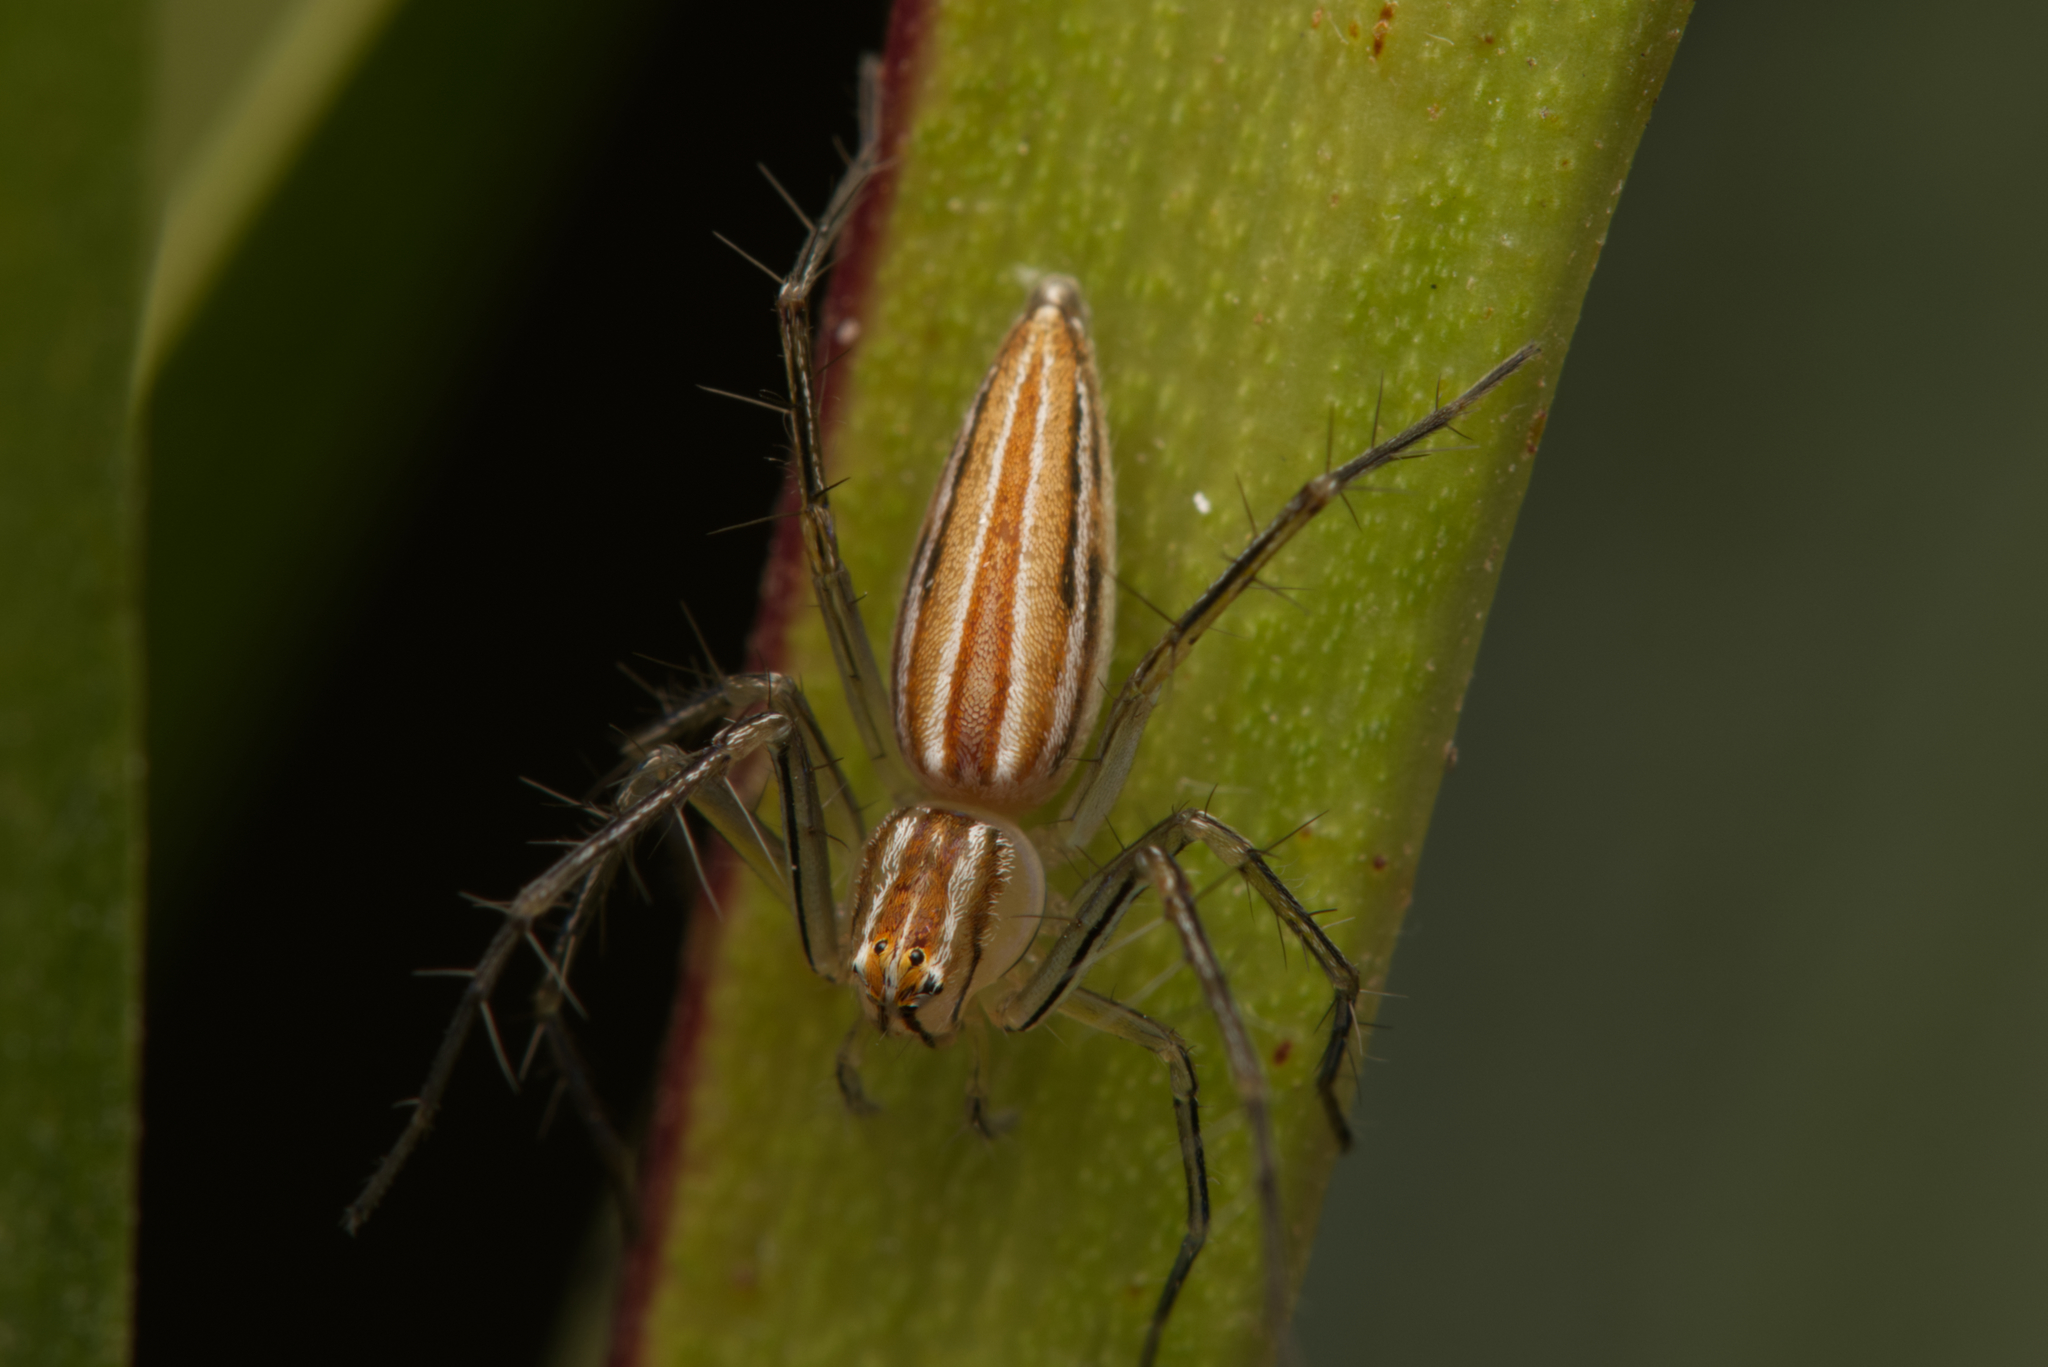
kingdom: Animalia
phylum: Arthropoda
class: Arachnida
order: Araneae
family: Oxyopidae
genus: Oxyopes
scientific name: Oxyopes macilentus
